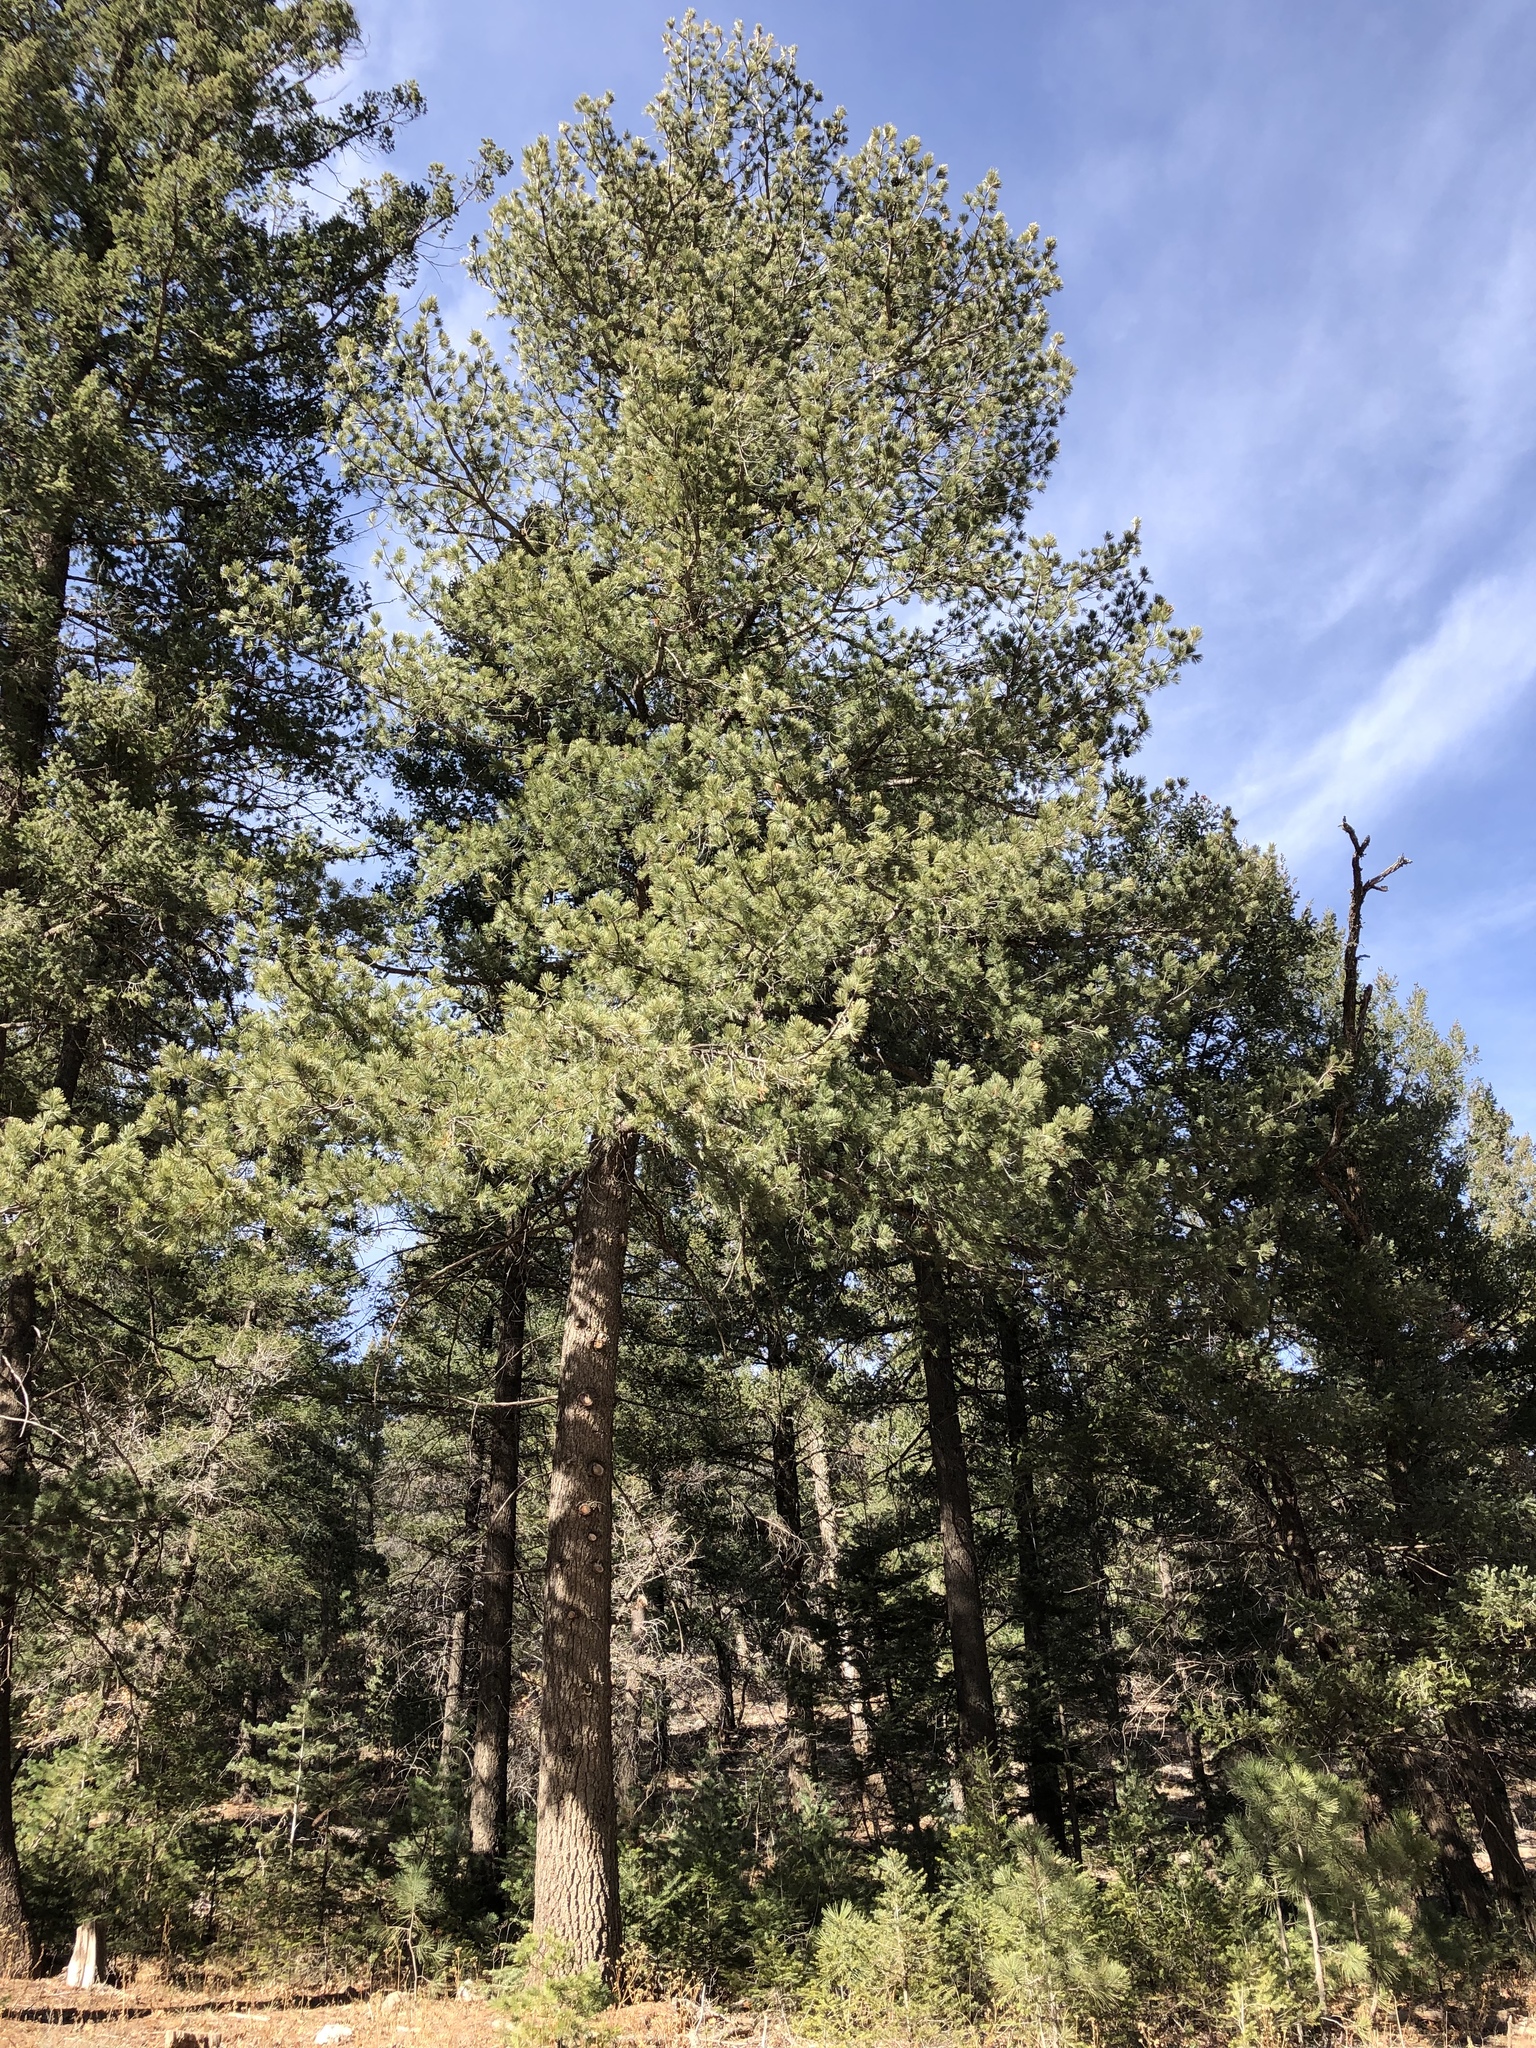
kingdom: Plantae
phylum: Tracheophyta
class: Pinopsida
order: Pinales
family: Pinaceae
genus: Pinus
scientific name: Pinus strobiformis
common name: Southwestern white pine
